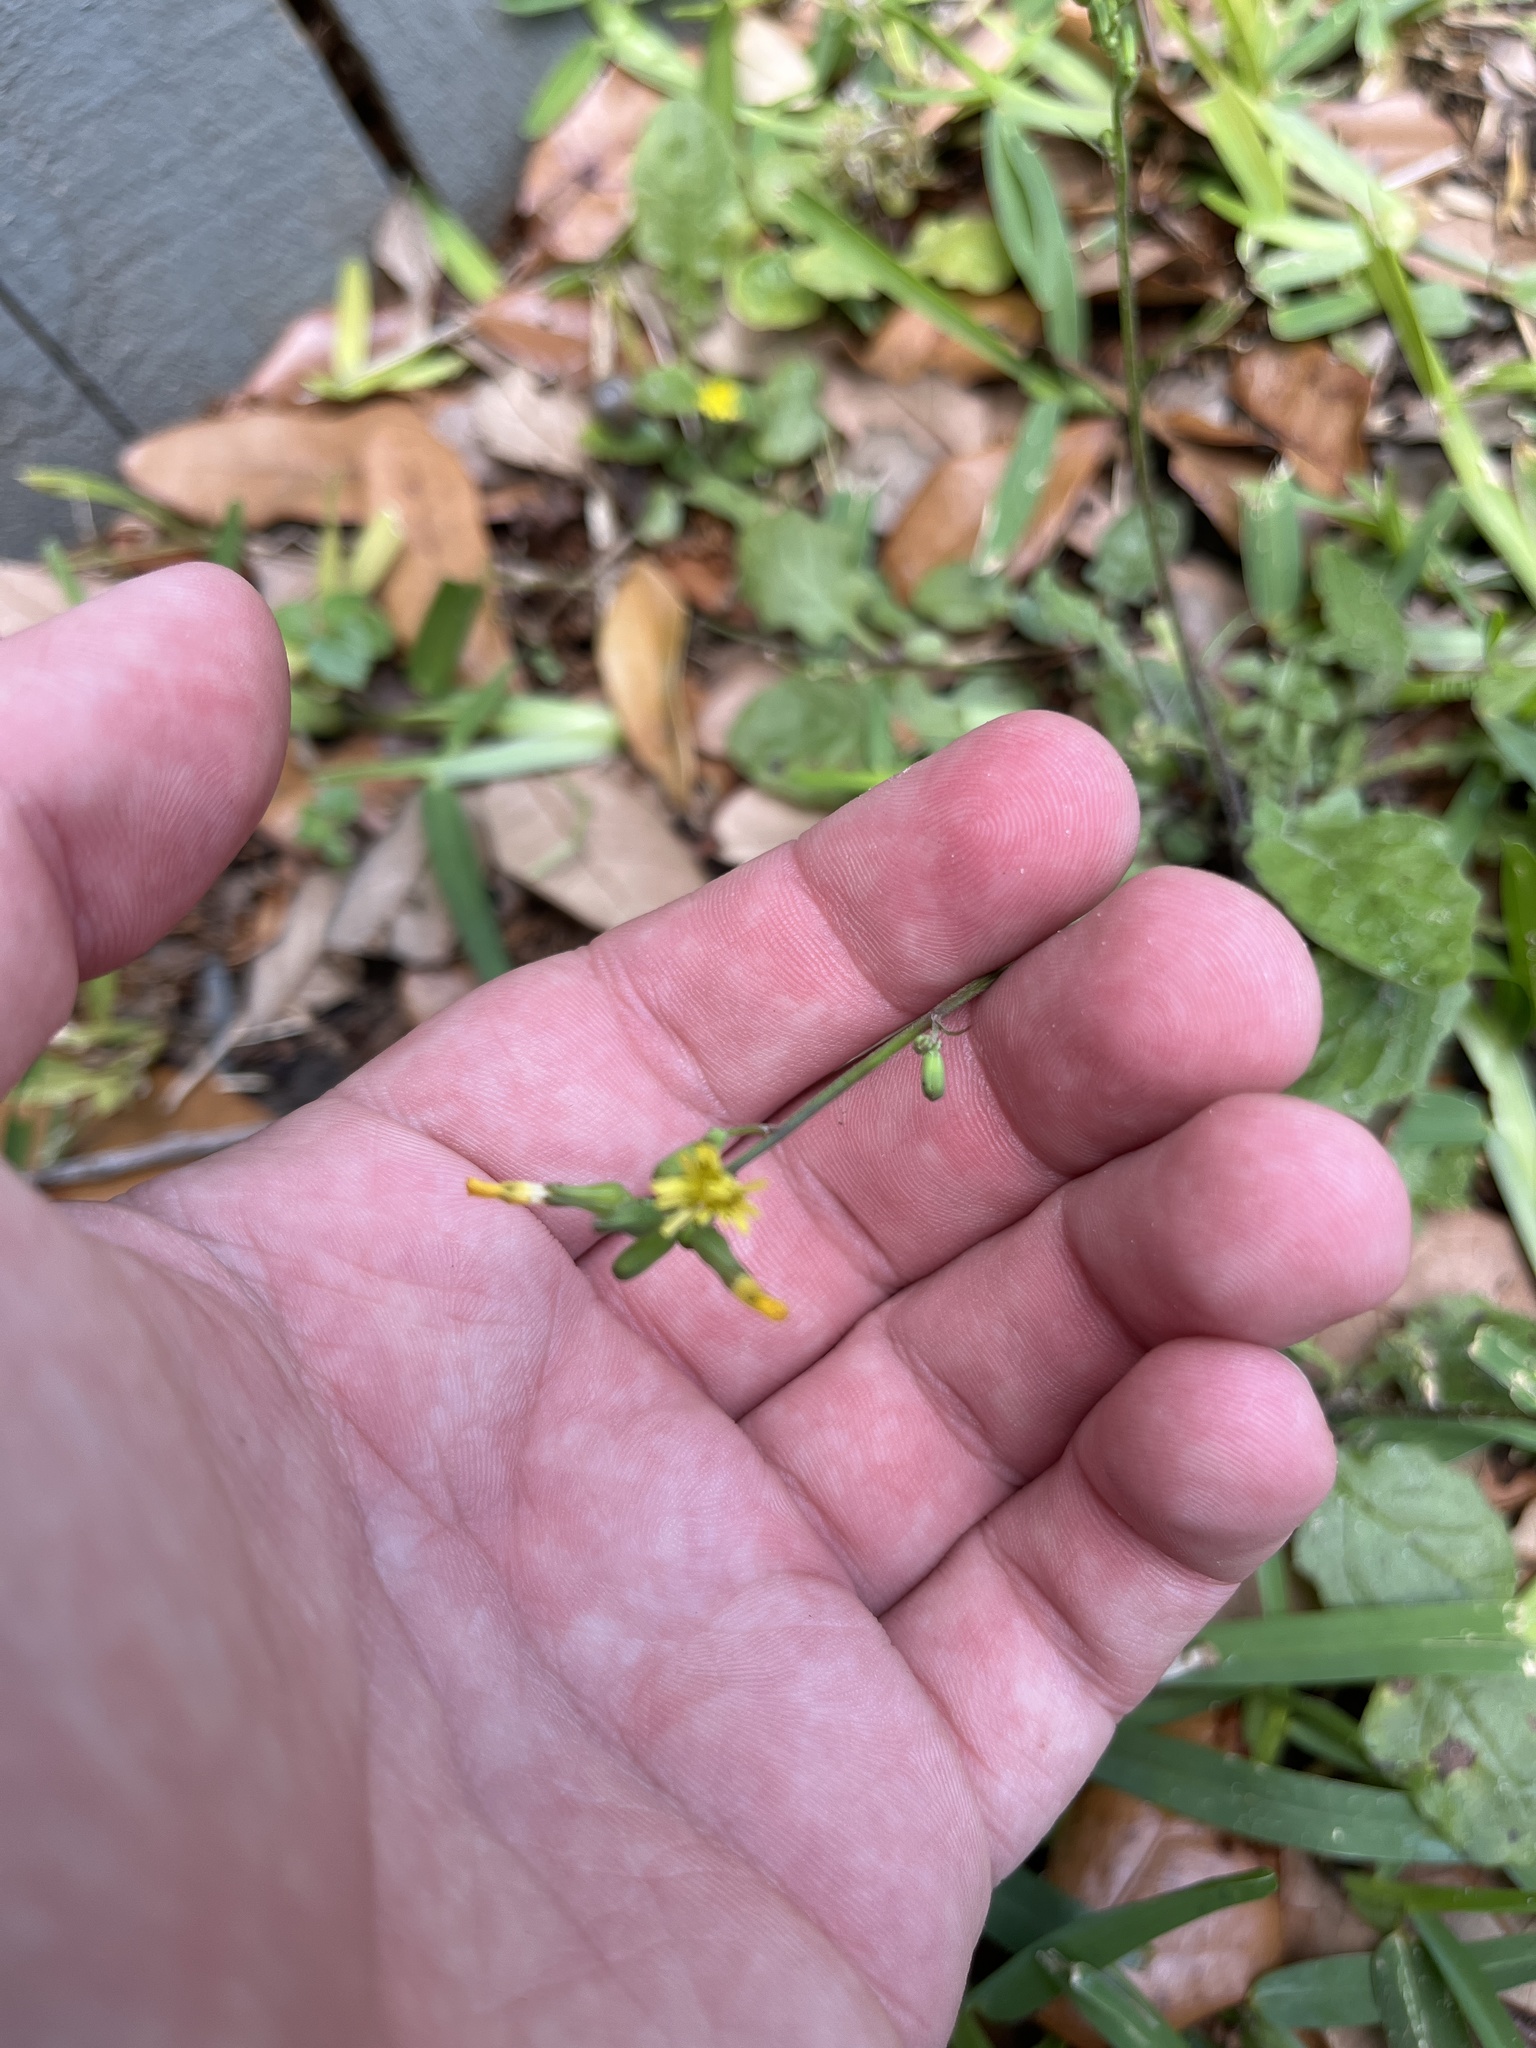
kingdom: Plantae
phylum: Tracheophyta
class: Magnoliopsida
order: Asterales
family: Asteraceae
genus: Youngia
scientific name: Youngia japonica
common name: Oriental false hawksbeard
